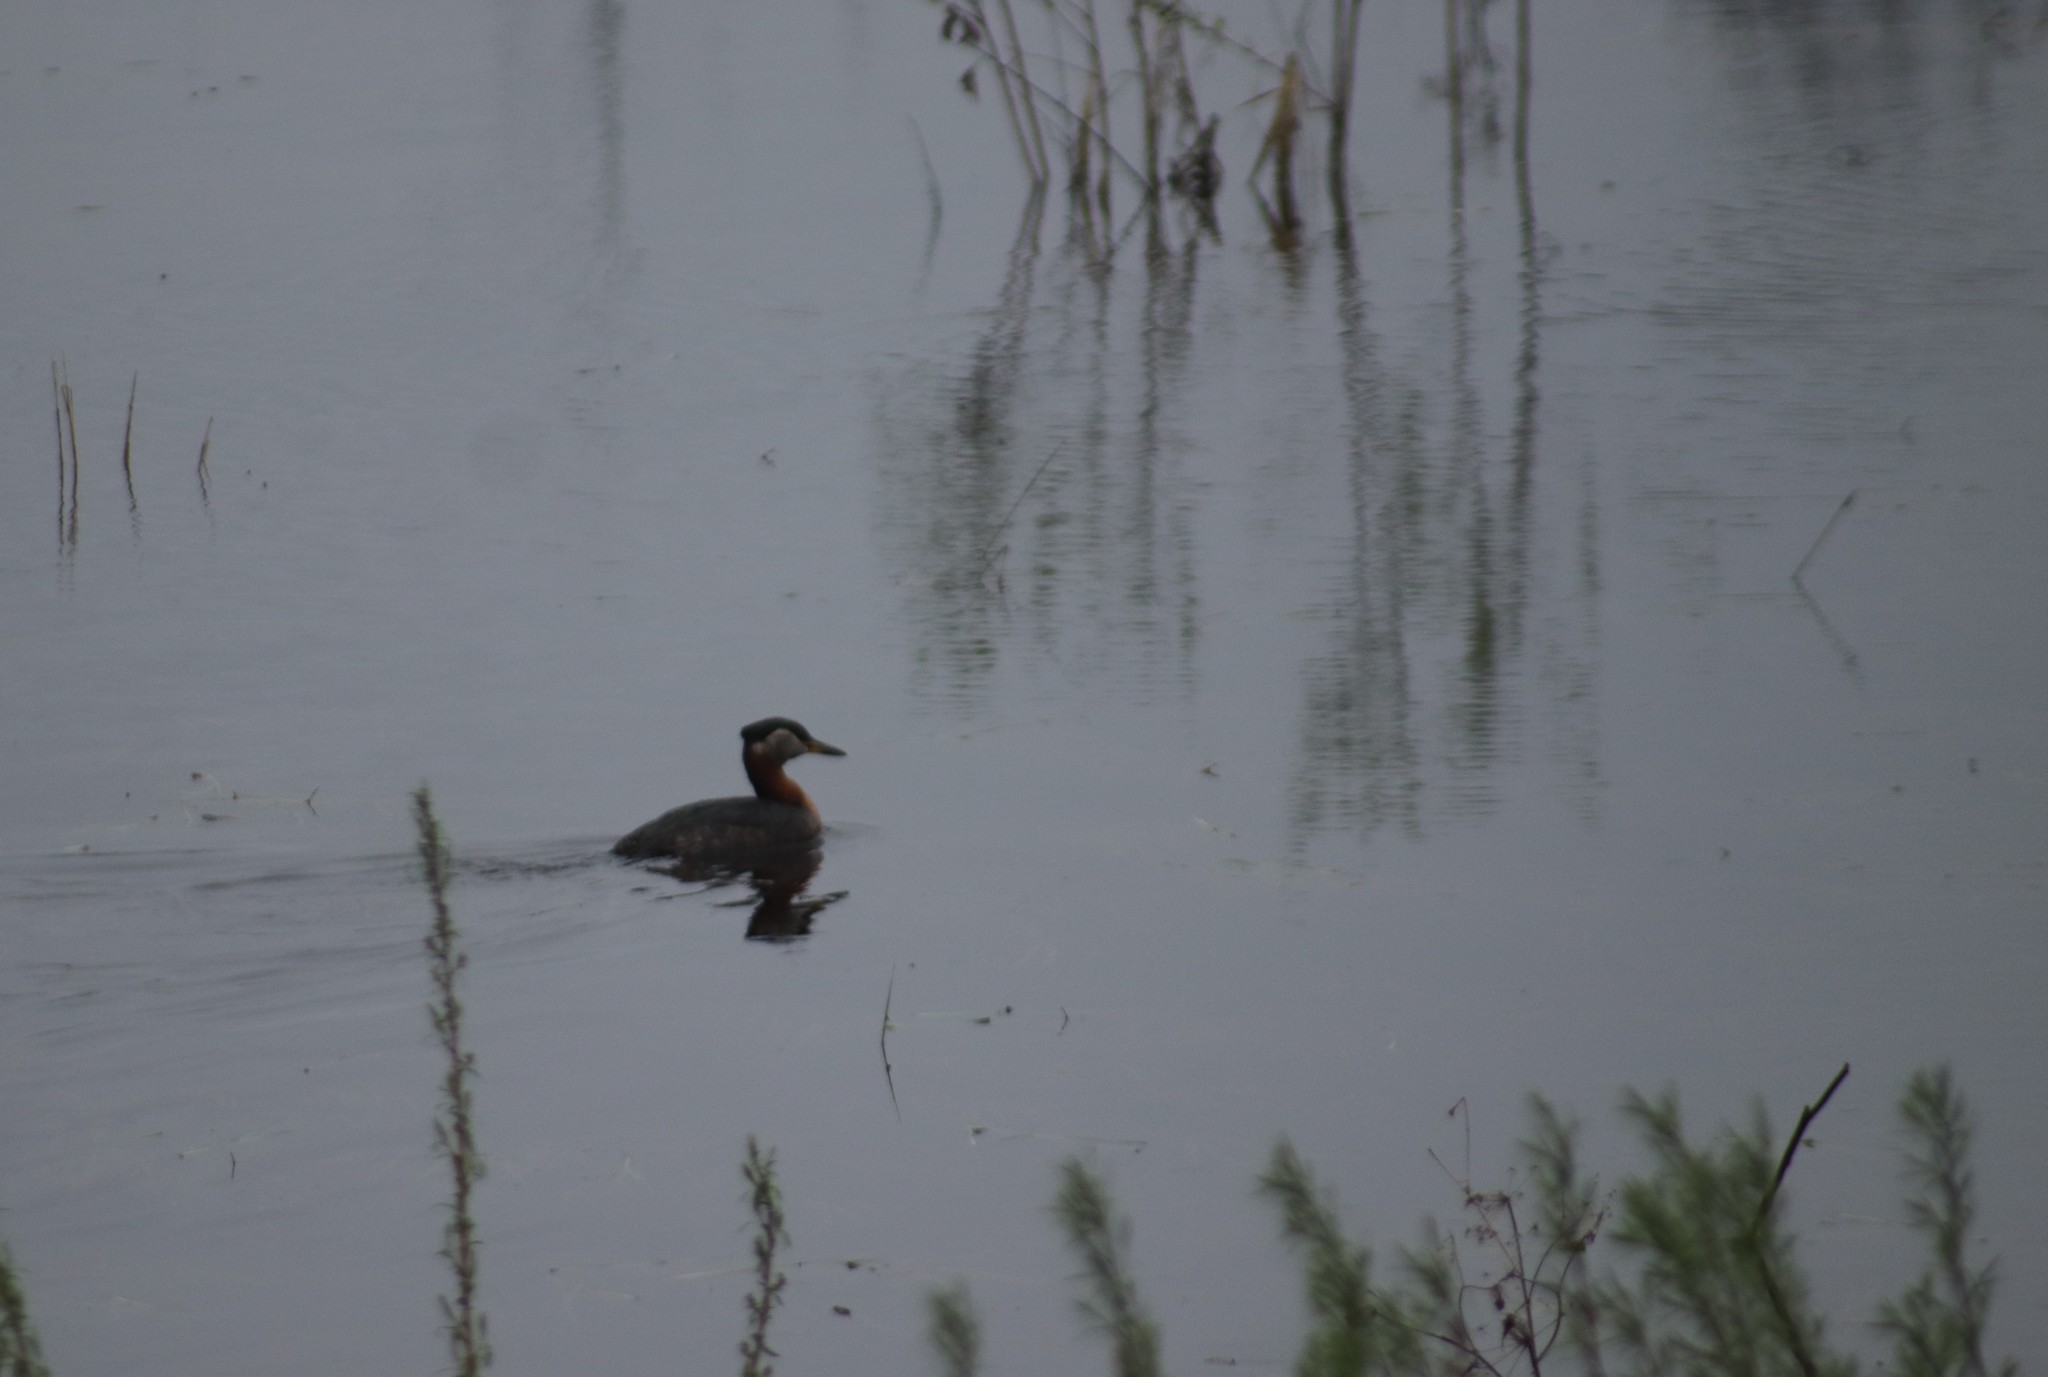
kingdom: Animalia
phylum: Chordata
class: Aves
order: Podicipediformes
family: Podicipedidae
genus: Podiceps
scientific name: Podiceps grisegena
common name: Red-necked grebe
